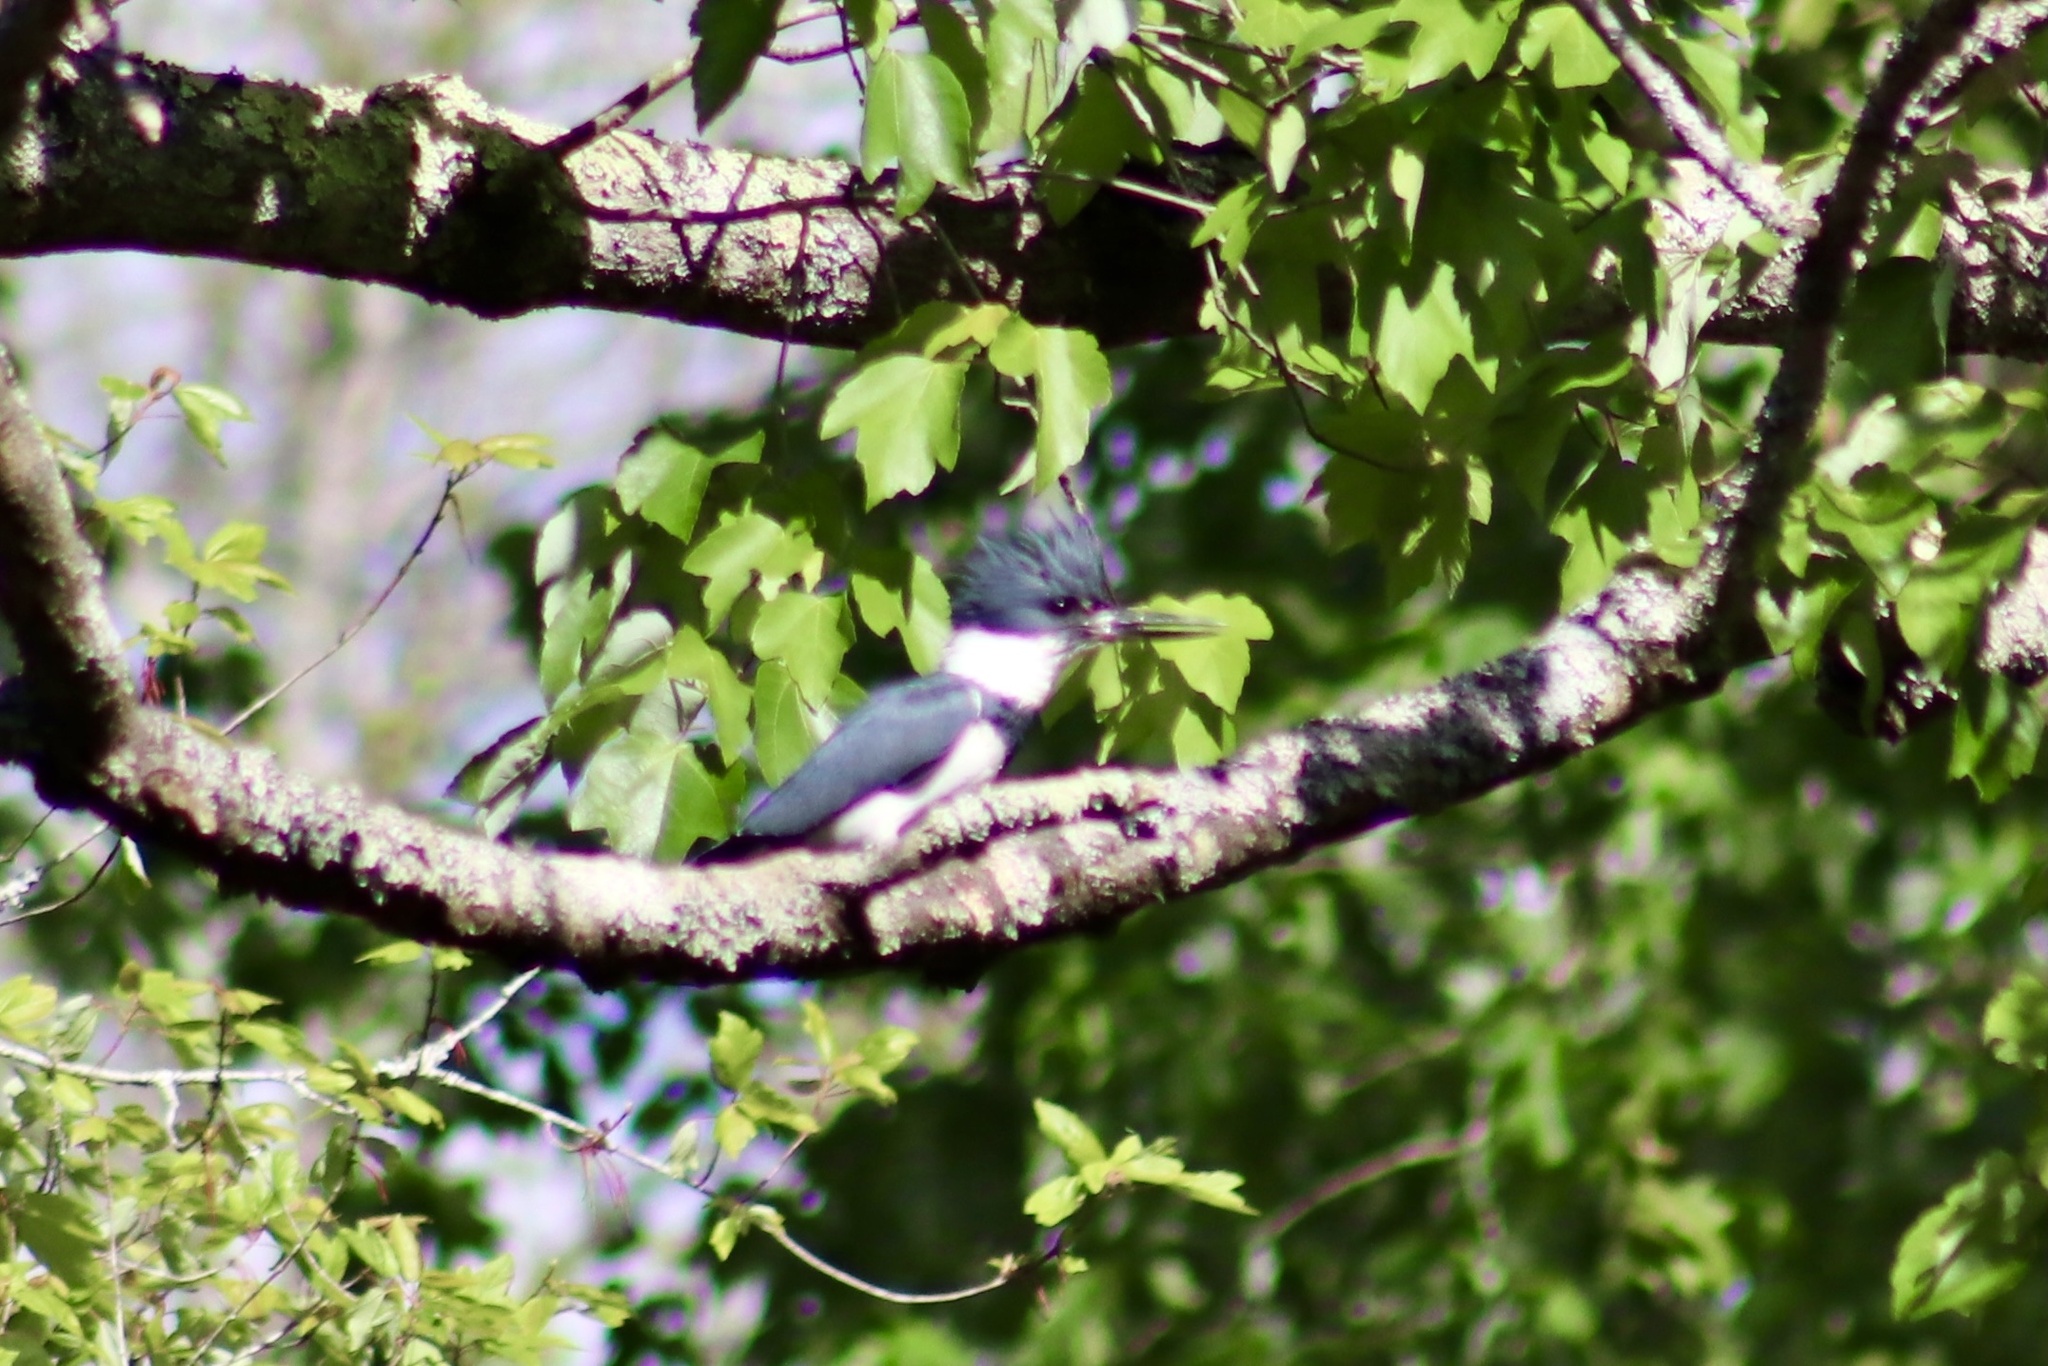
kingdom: Animalia
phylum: Chordata
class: Aves
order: Coraciiformes
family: Alcedinidae
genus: Megaceryle
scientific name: Megaceryle alcyon
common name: Belted kingfisher
